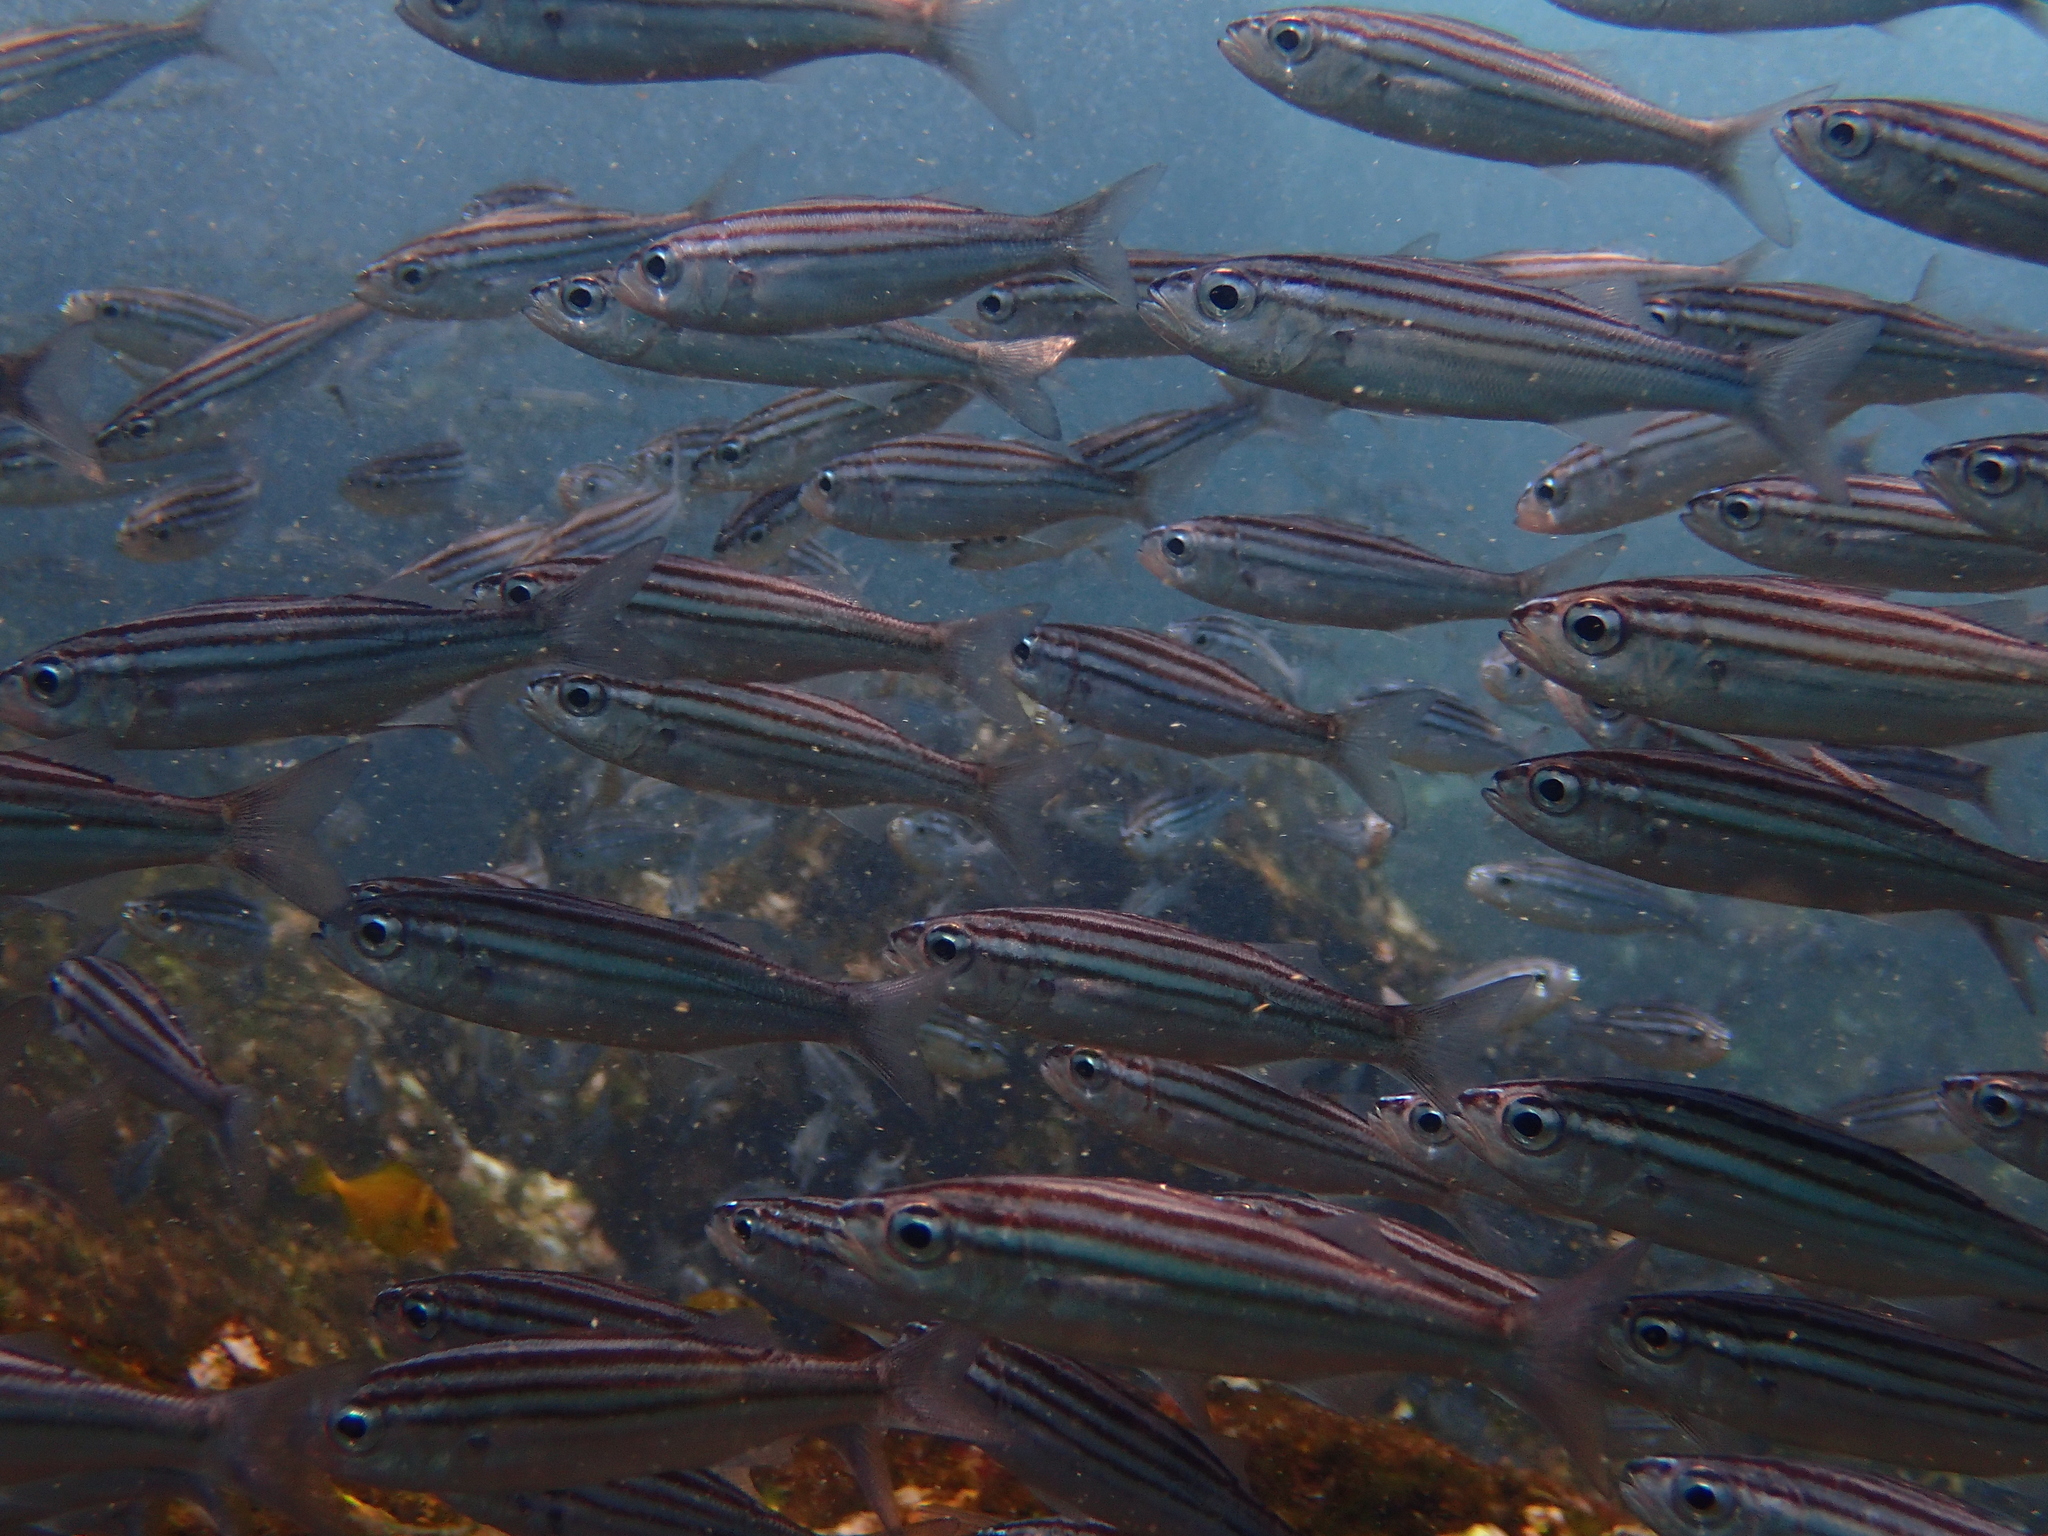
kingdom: Animalia
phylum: Chordata
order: Perciformes
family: Haemulidae
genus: Xenocys
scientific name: Xenocys jessiae
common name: Black-striped salema
